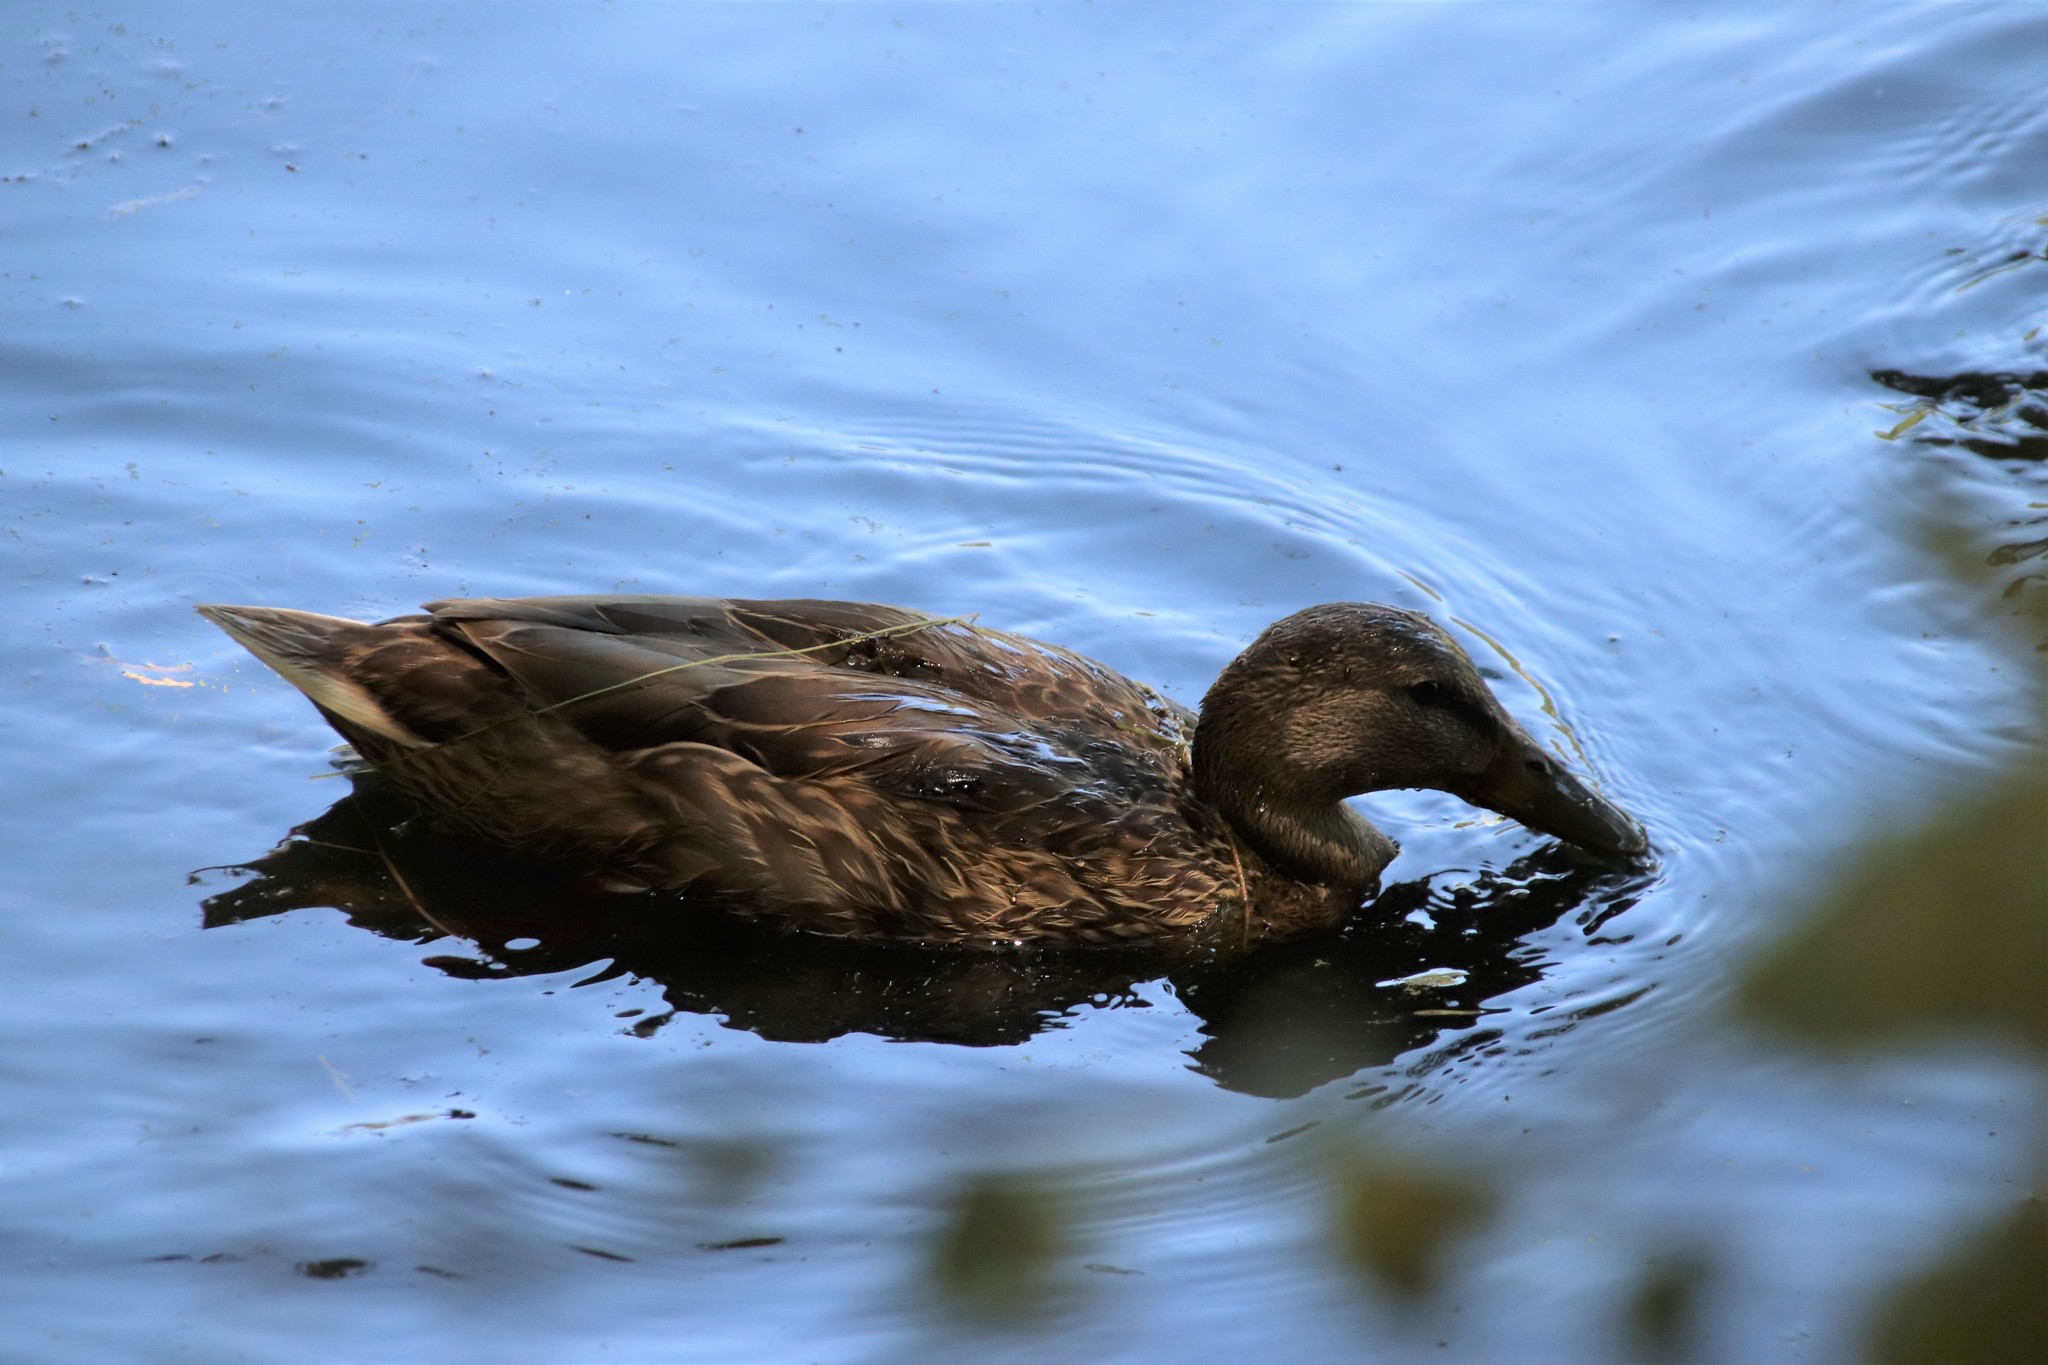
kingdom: Animalia
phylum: Chordata
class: Aves
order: Anseriformes
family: Anatidae
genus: Anas
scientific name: Anas platyrhynchos
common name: Mallard
